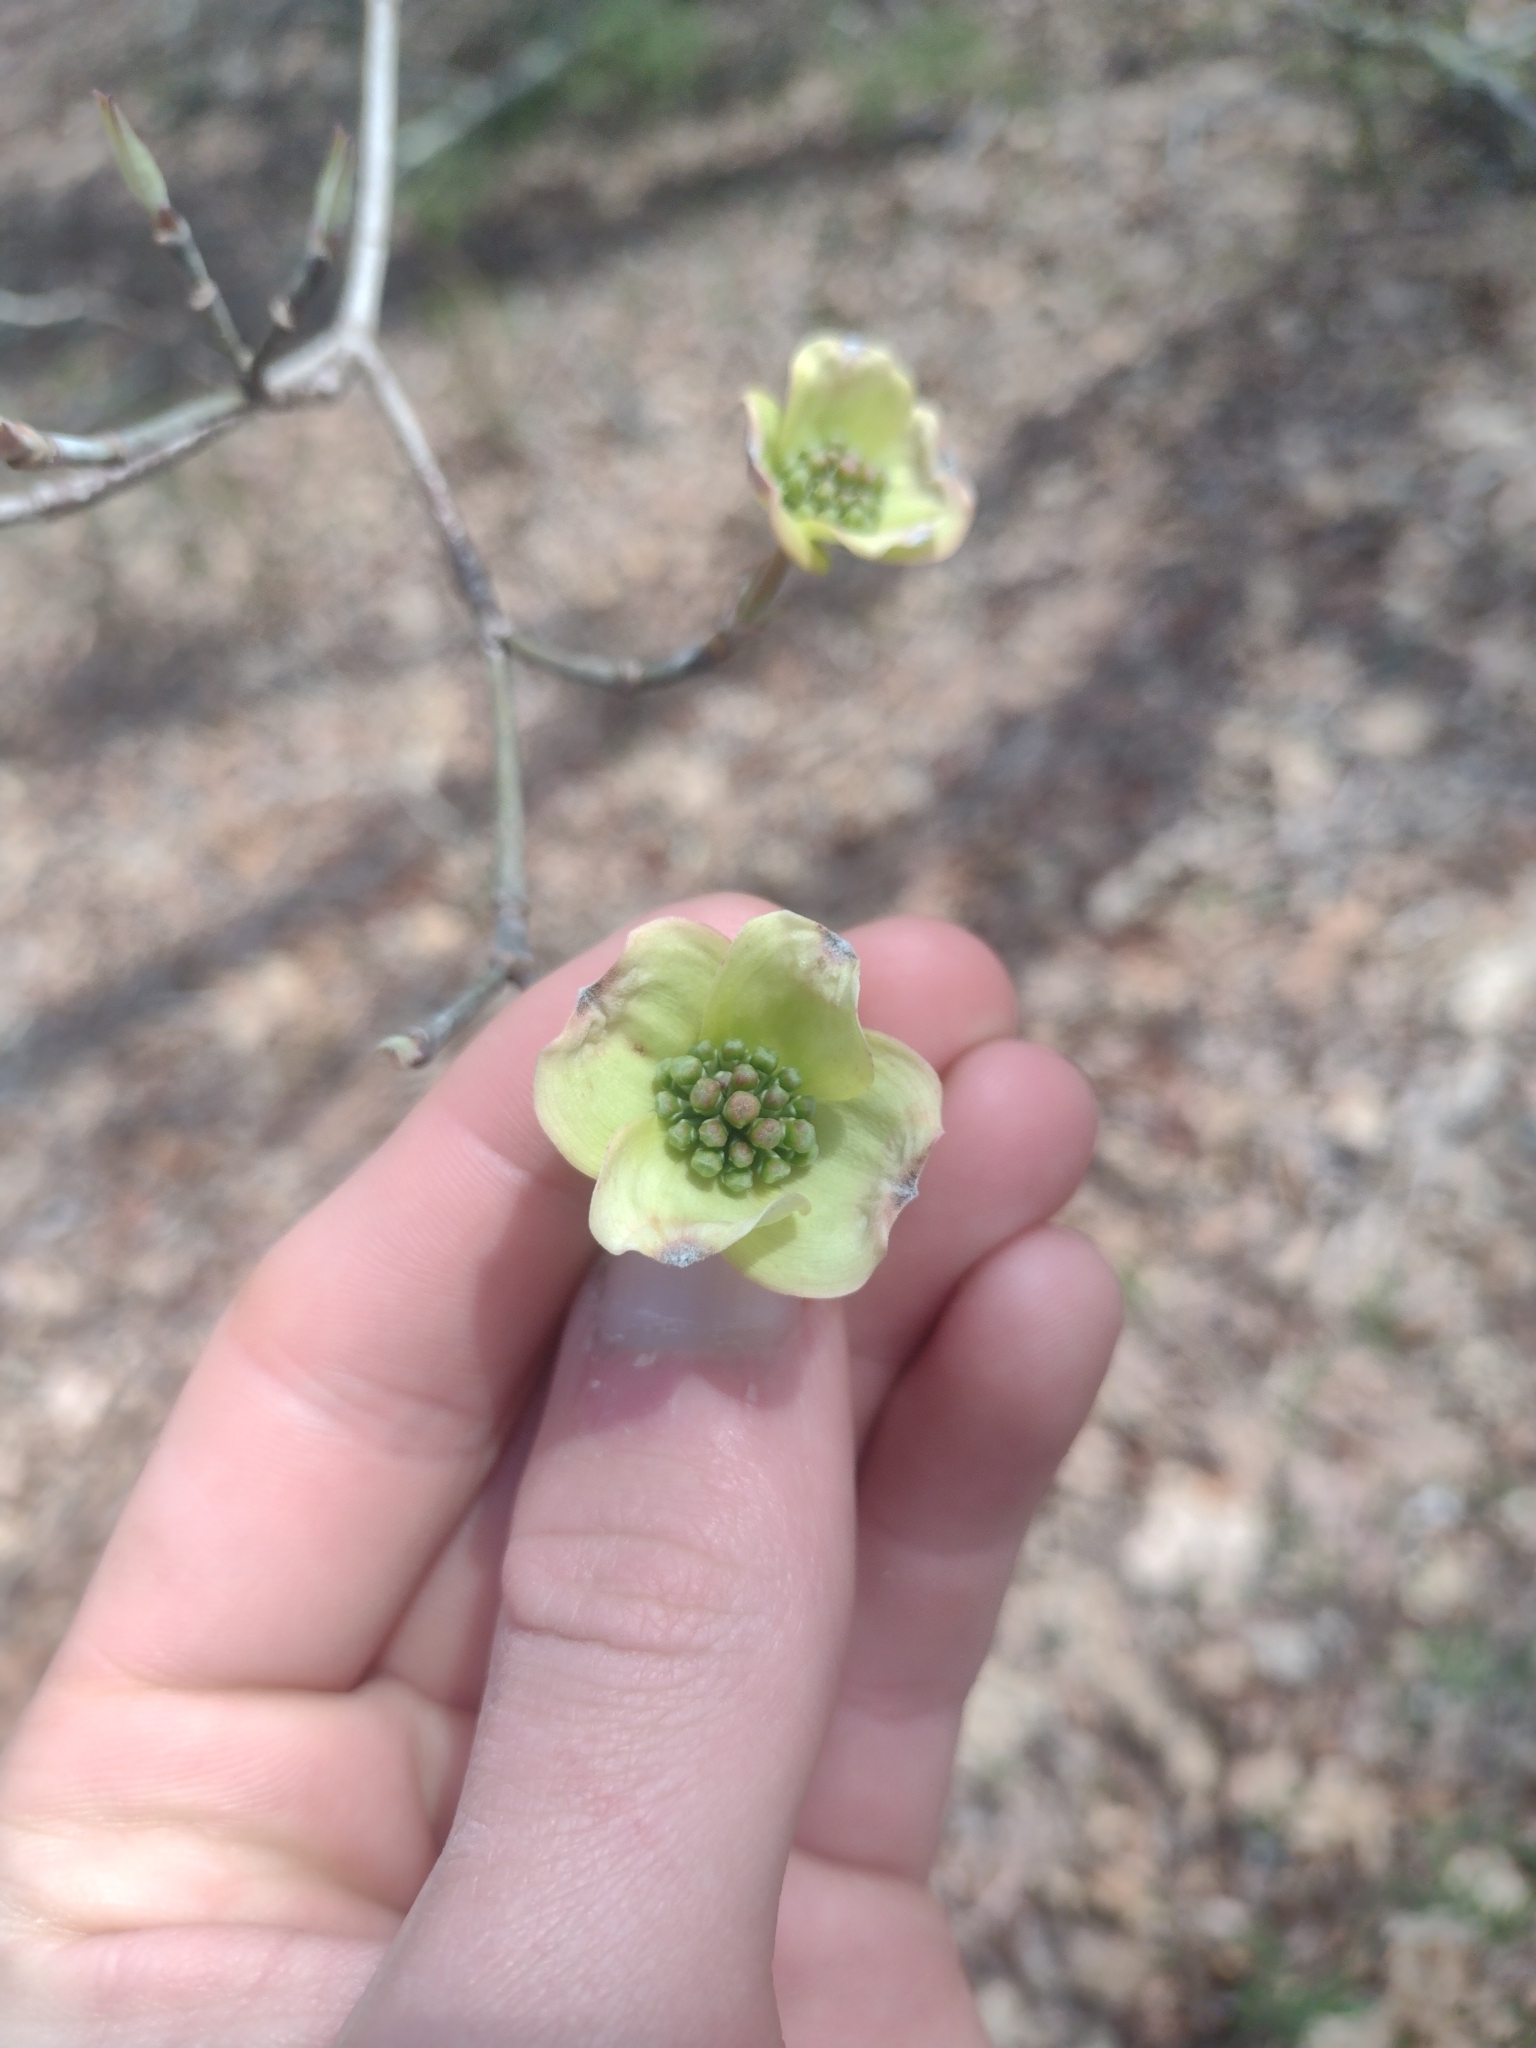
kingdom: Plantae
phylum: Tracheophyta
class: Magnoliopsida
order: Cornales
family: Cornaceae
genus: Cornus
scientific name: Cornus florida
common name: Flowering dogwood
